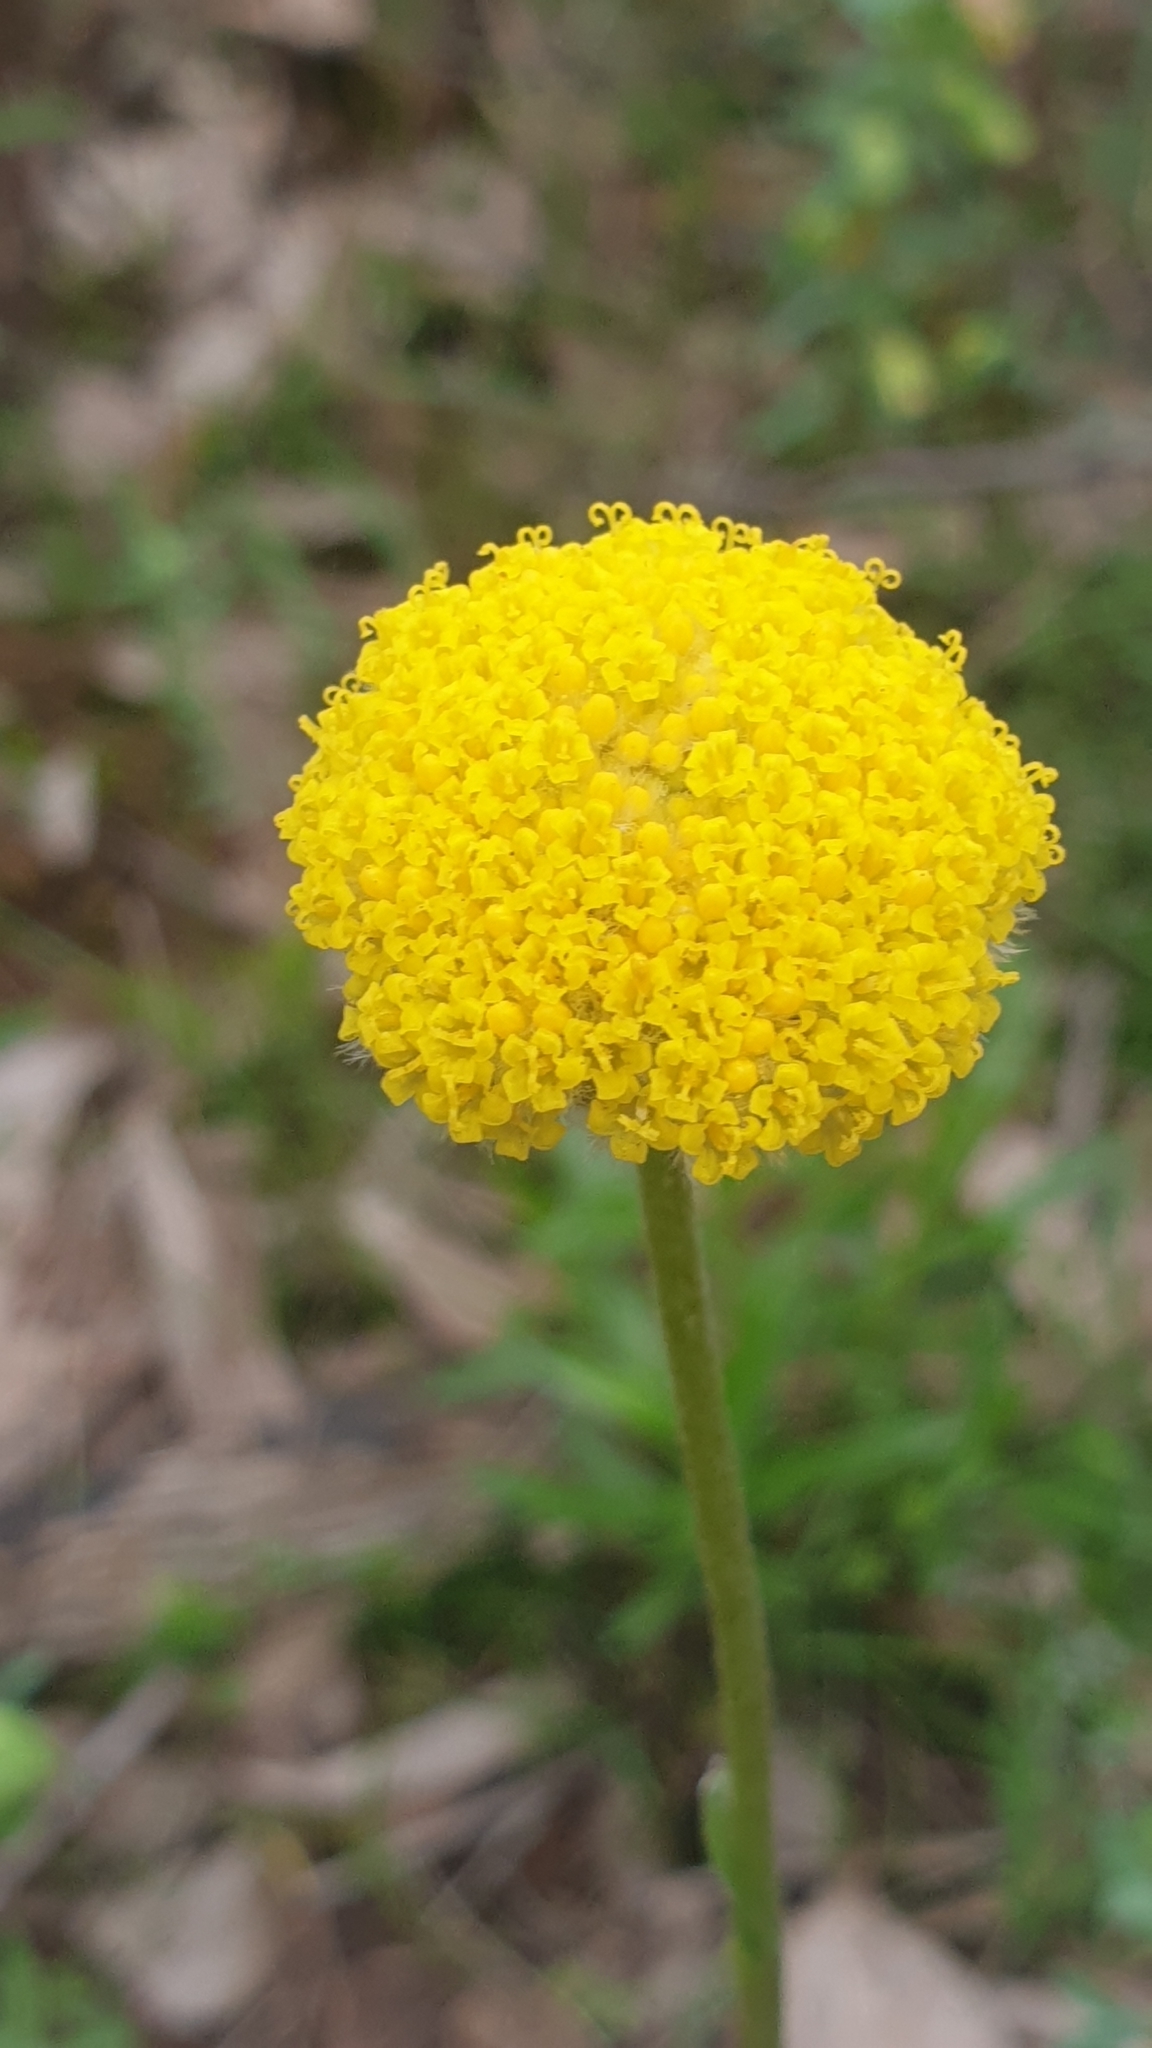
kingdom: Plantae
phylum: Tracheophyta
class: Magnoliopsida
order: Asterales
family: Asteraceae
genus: Craspedia
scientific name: Craspedia variabilis
